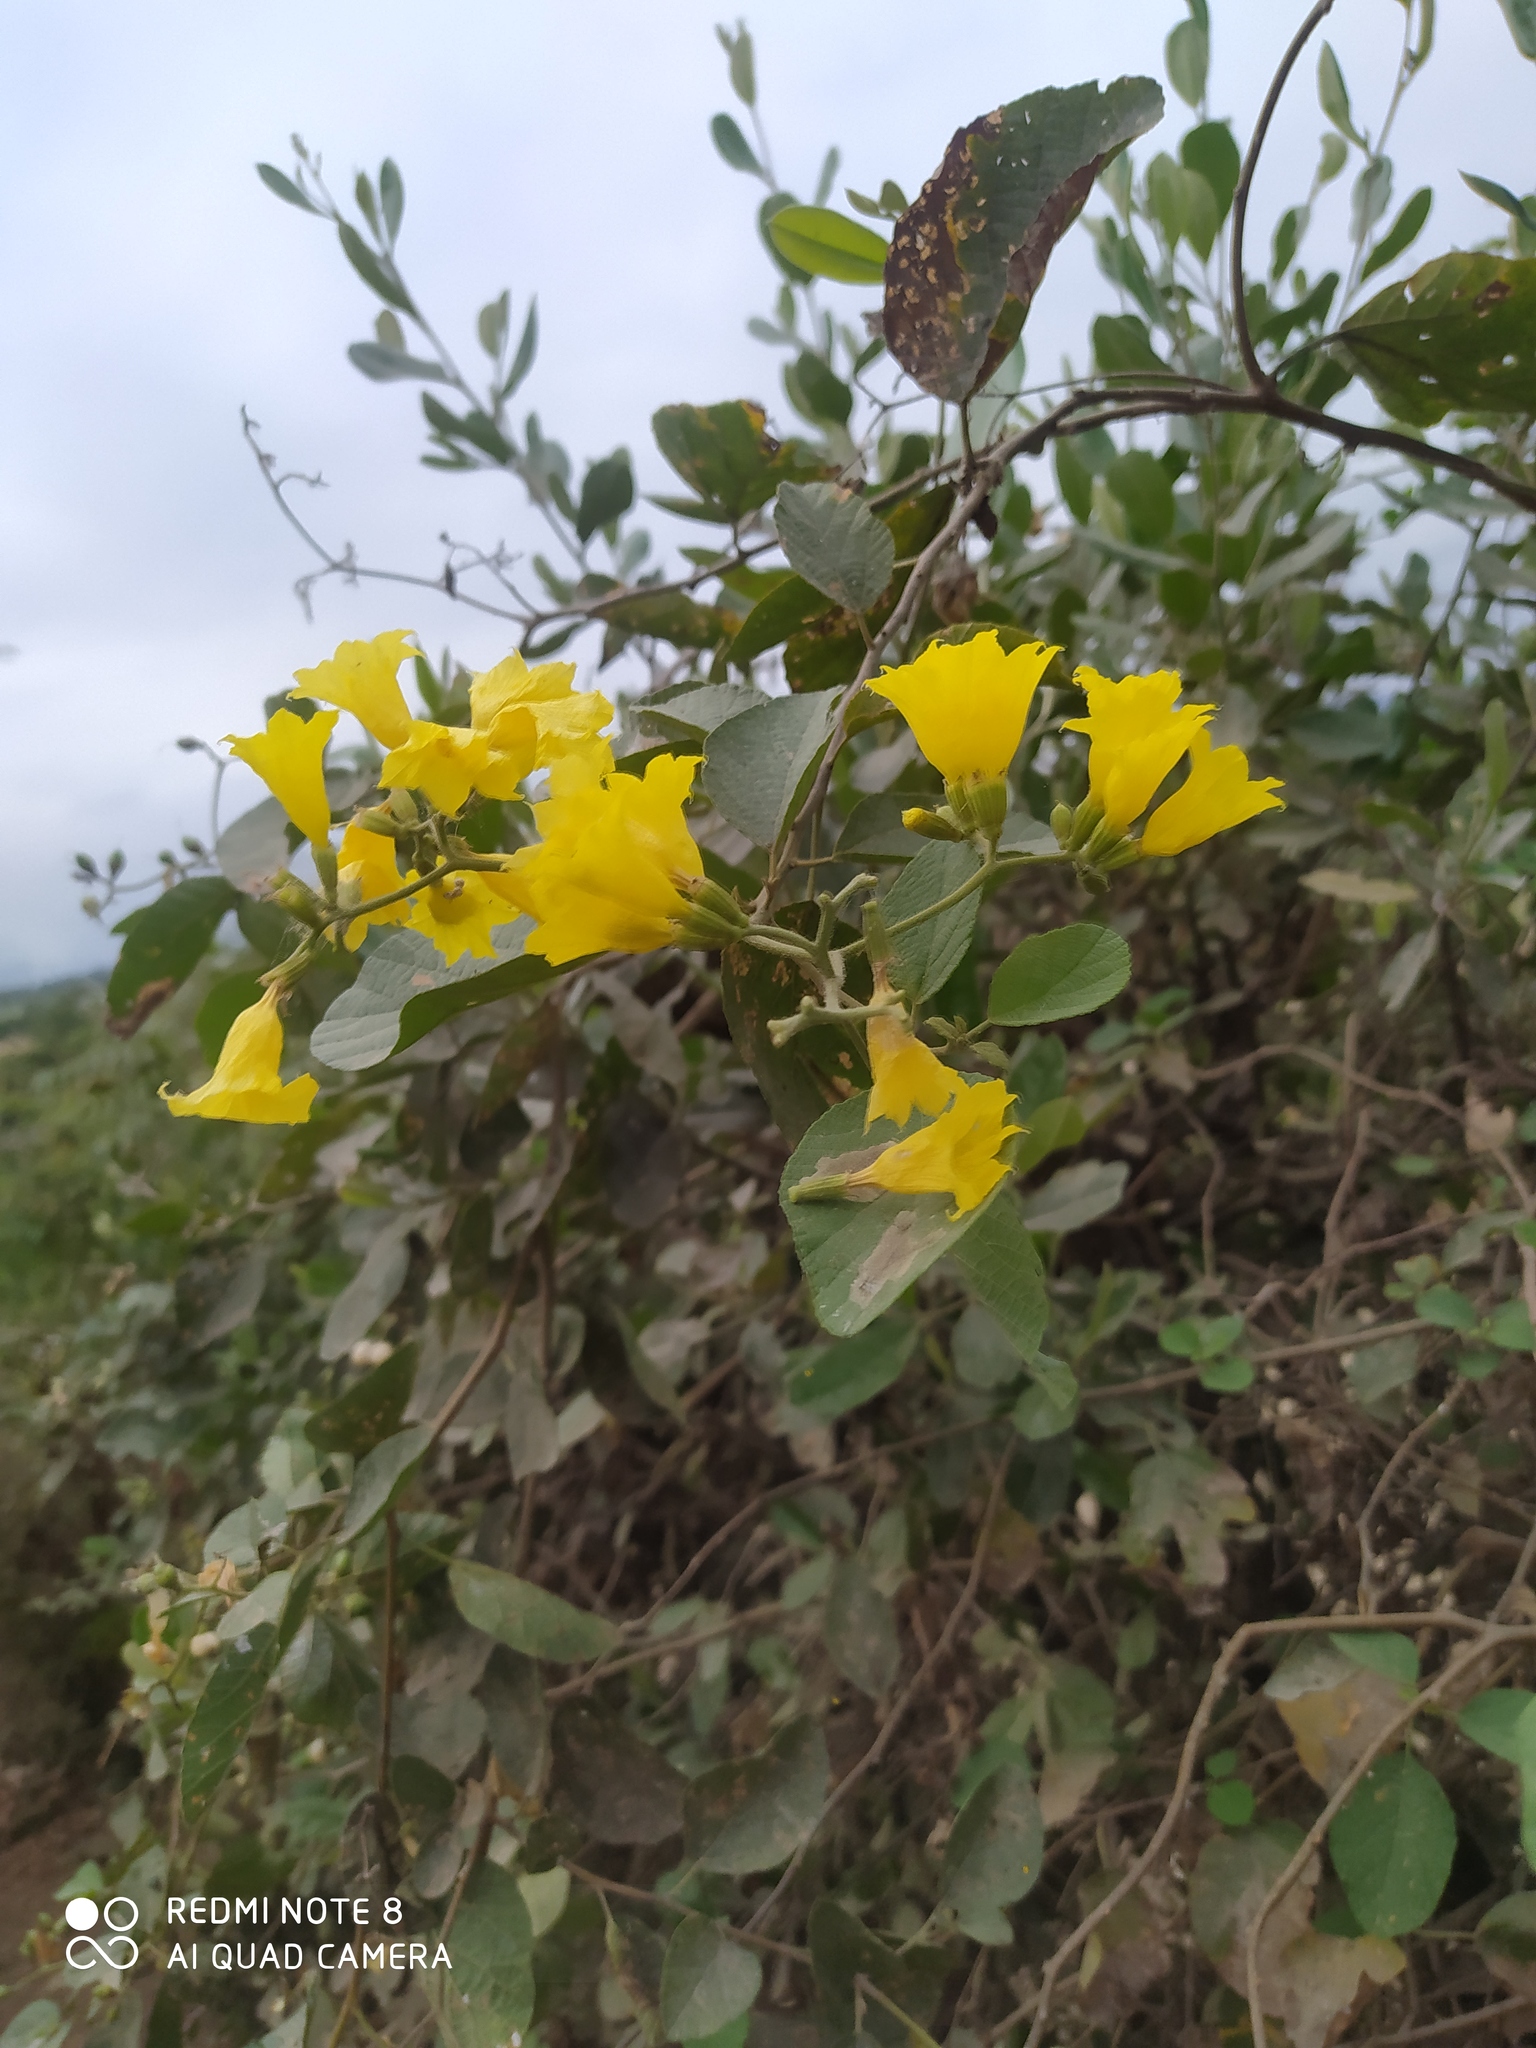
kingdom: Plantae
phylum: Tracheophyta
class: Magnoliopsida
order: Boraginales
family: Cordiaceae
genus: Cordia
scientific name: Cordia lutea
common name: Yellow geiger
